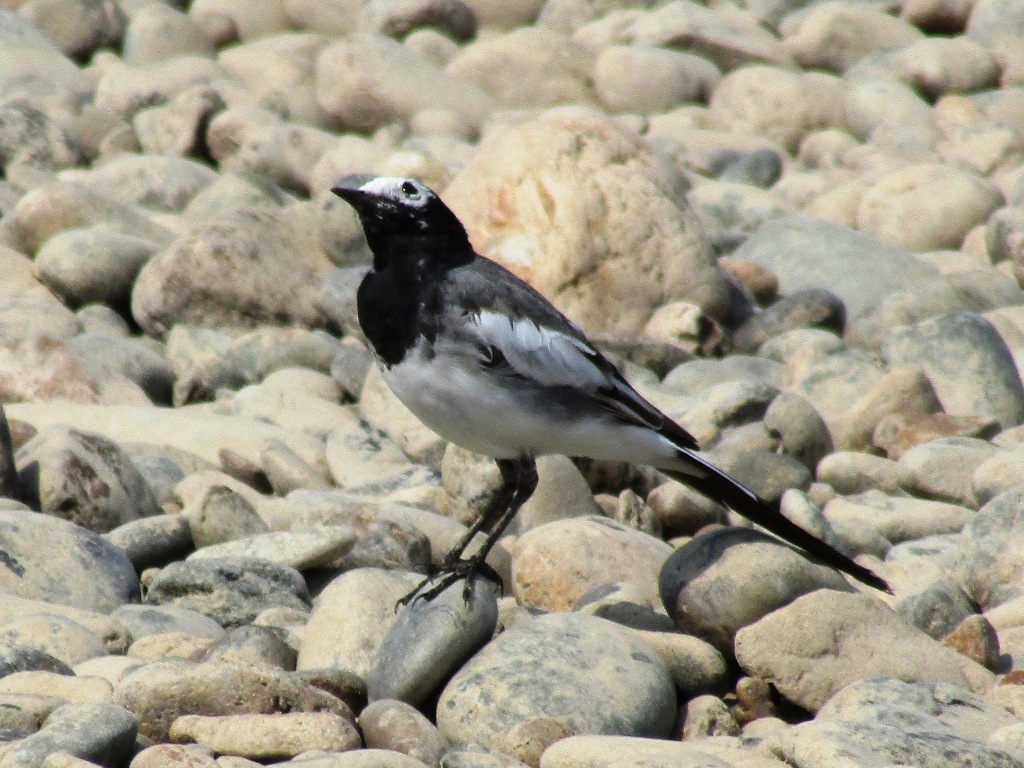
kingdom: Animalia
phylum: Chordata
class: Aves
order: Passeriformes
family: Motacillidae
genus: Motacilla
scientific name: Motacilla alba
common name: White wagtail
